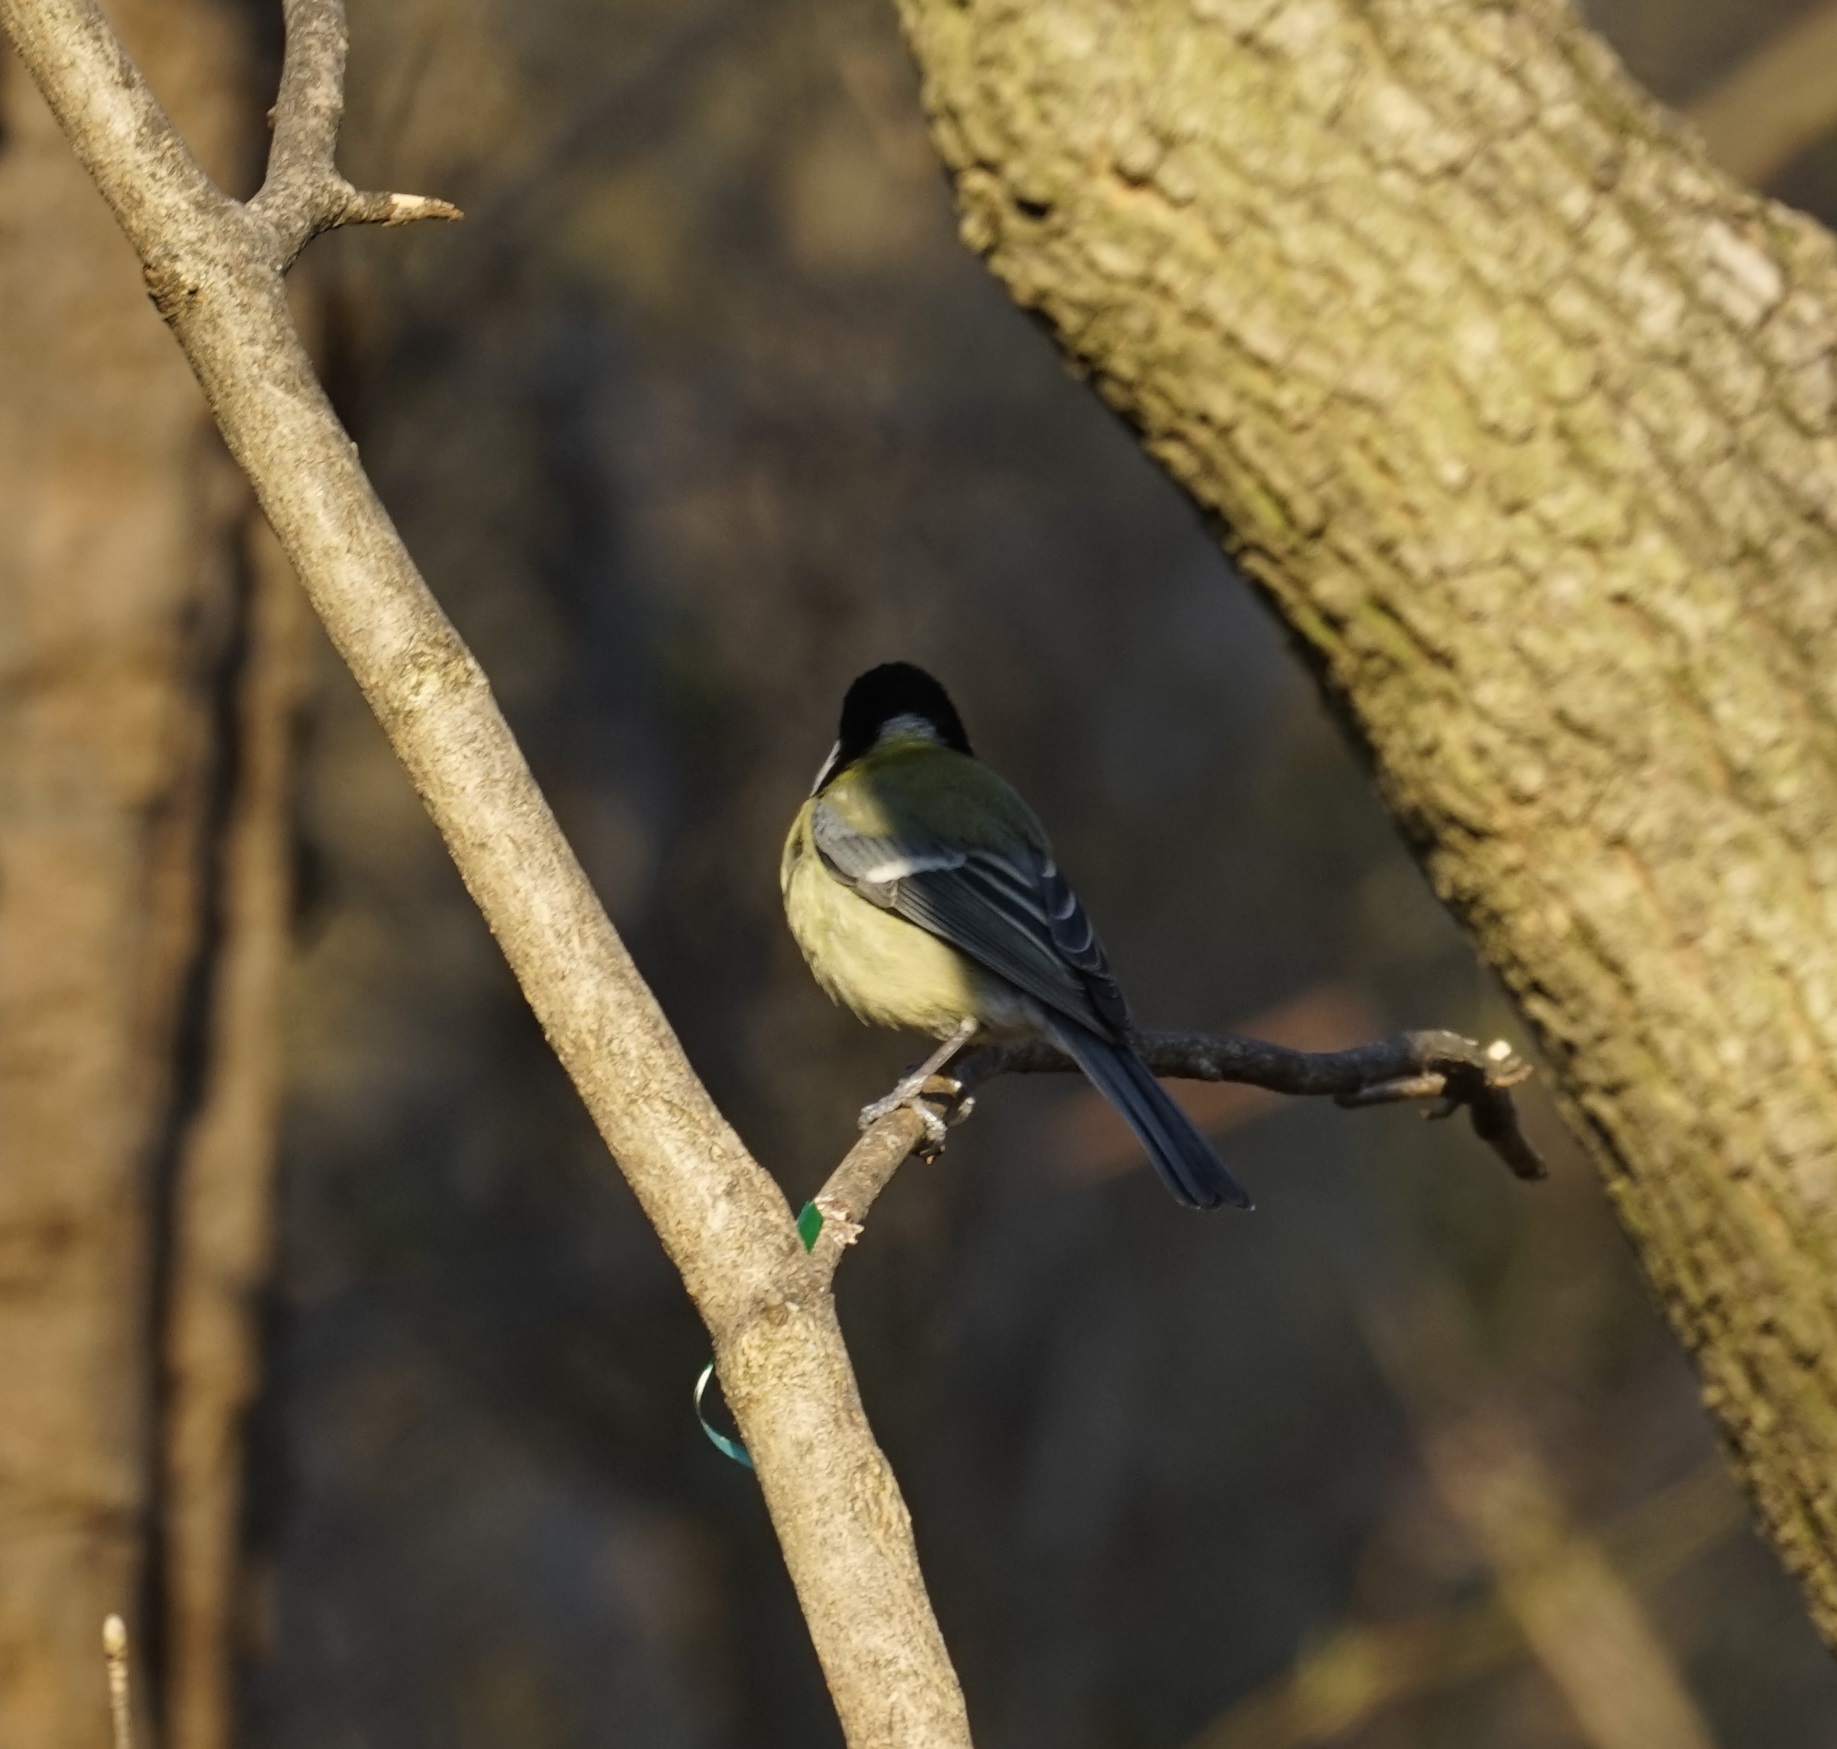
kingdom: Animalia
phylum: Chordata
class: Aves
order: Passeriformes
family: Paridae
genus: Parus
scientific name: Parus major
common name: Great tit
